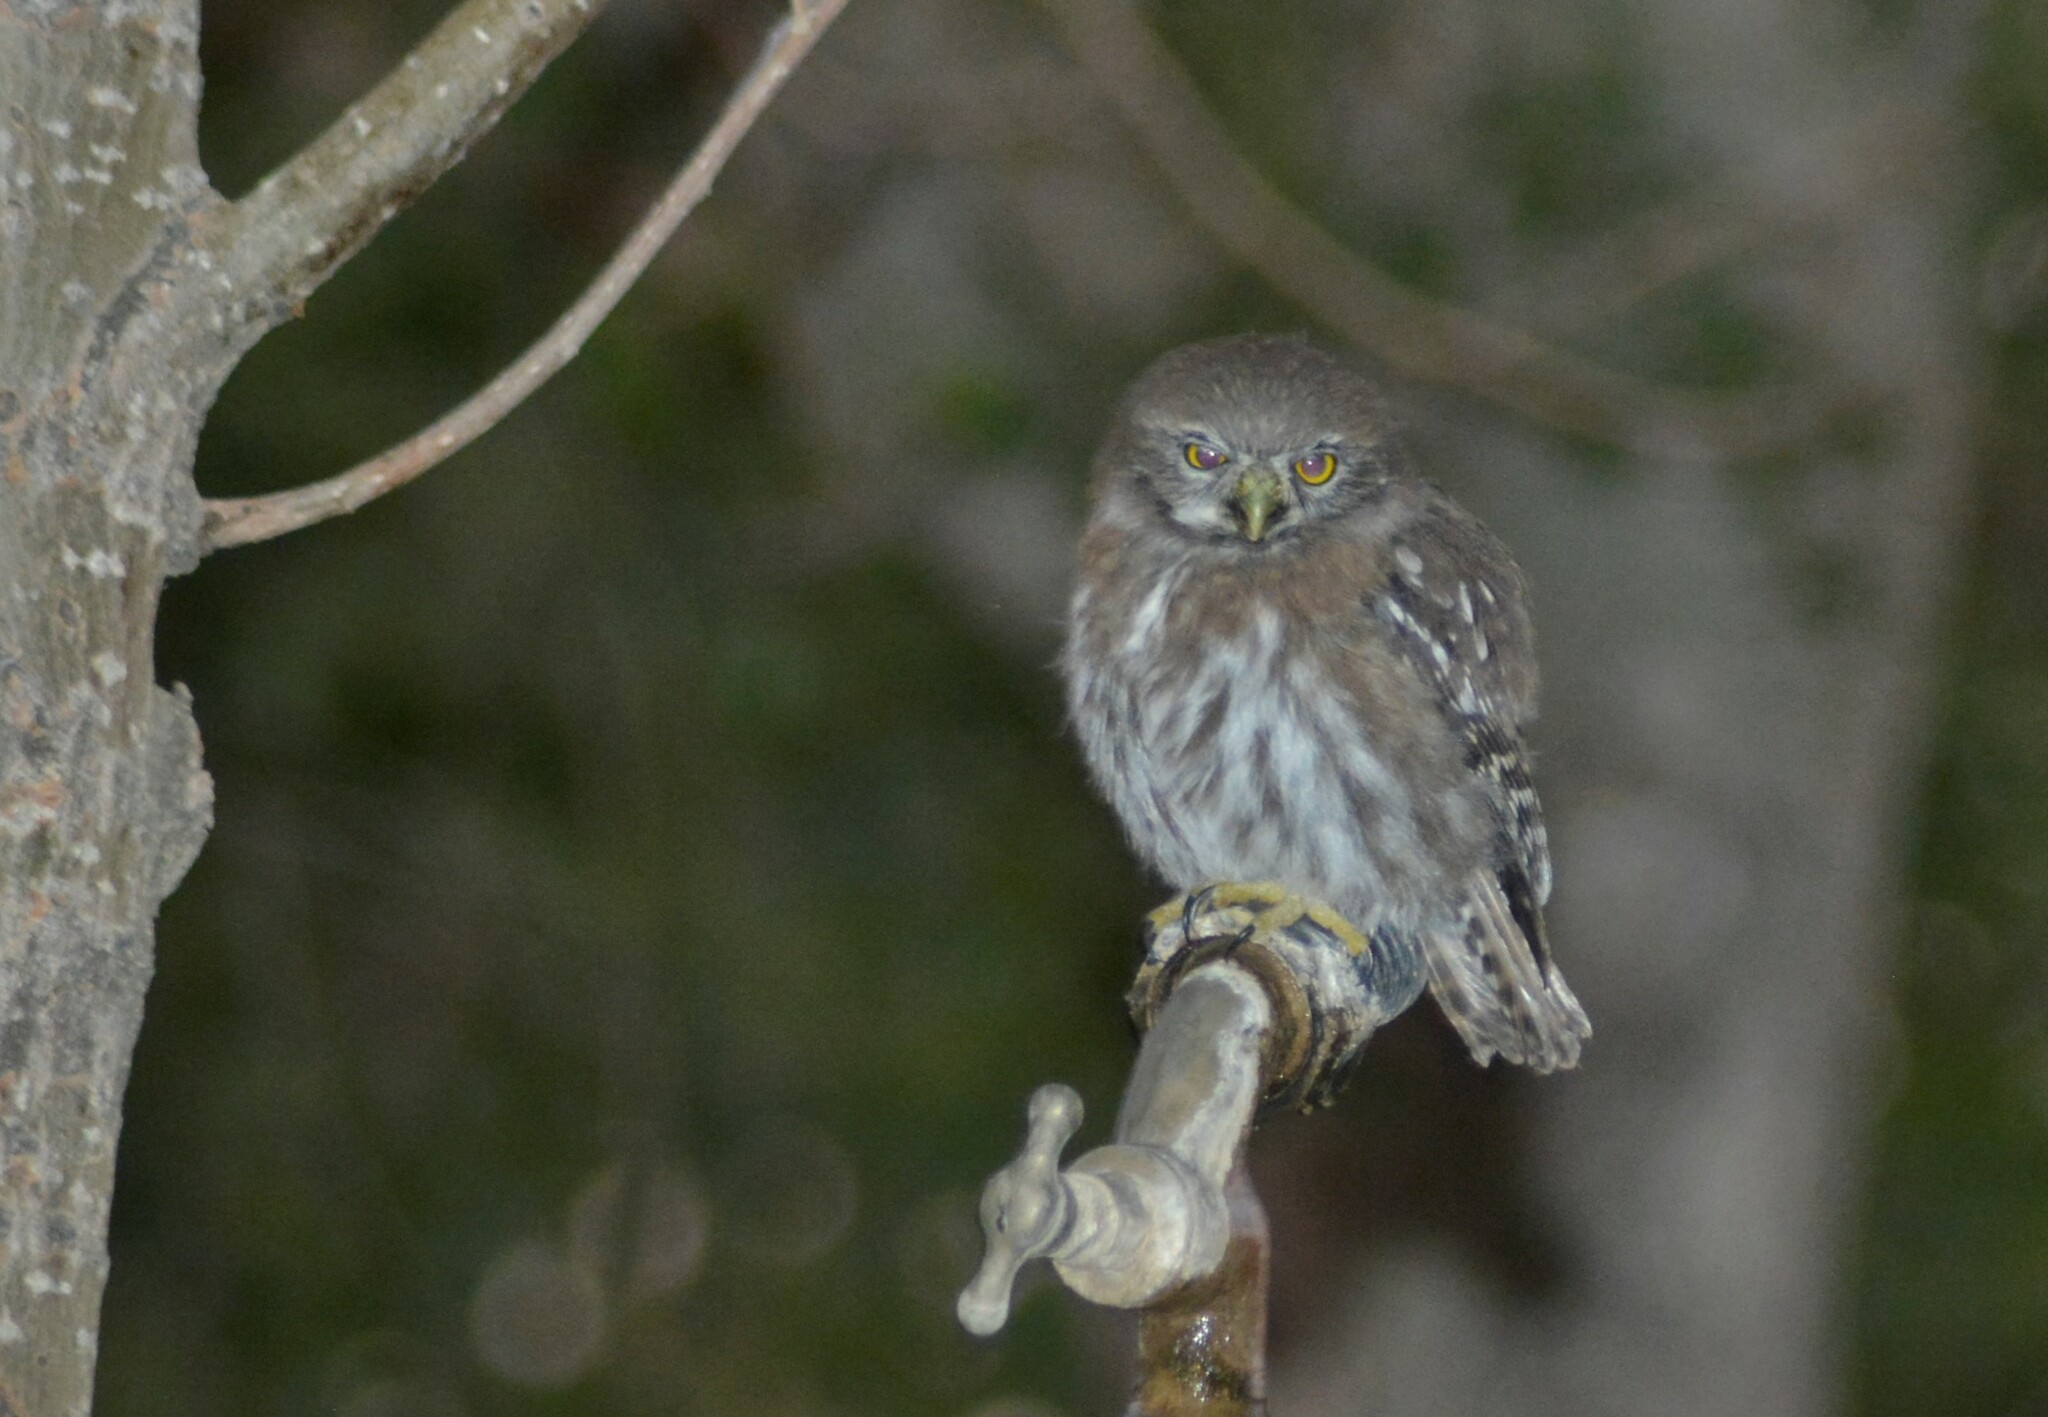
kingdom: Animalia
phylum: Chordata
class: Aves
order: Strigiformes
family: Strigidae
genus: Glaucidium
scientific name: Glaucidium nana
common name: Austral pygmy-owl
